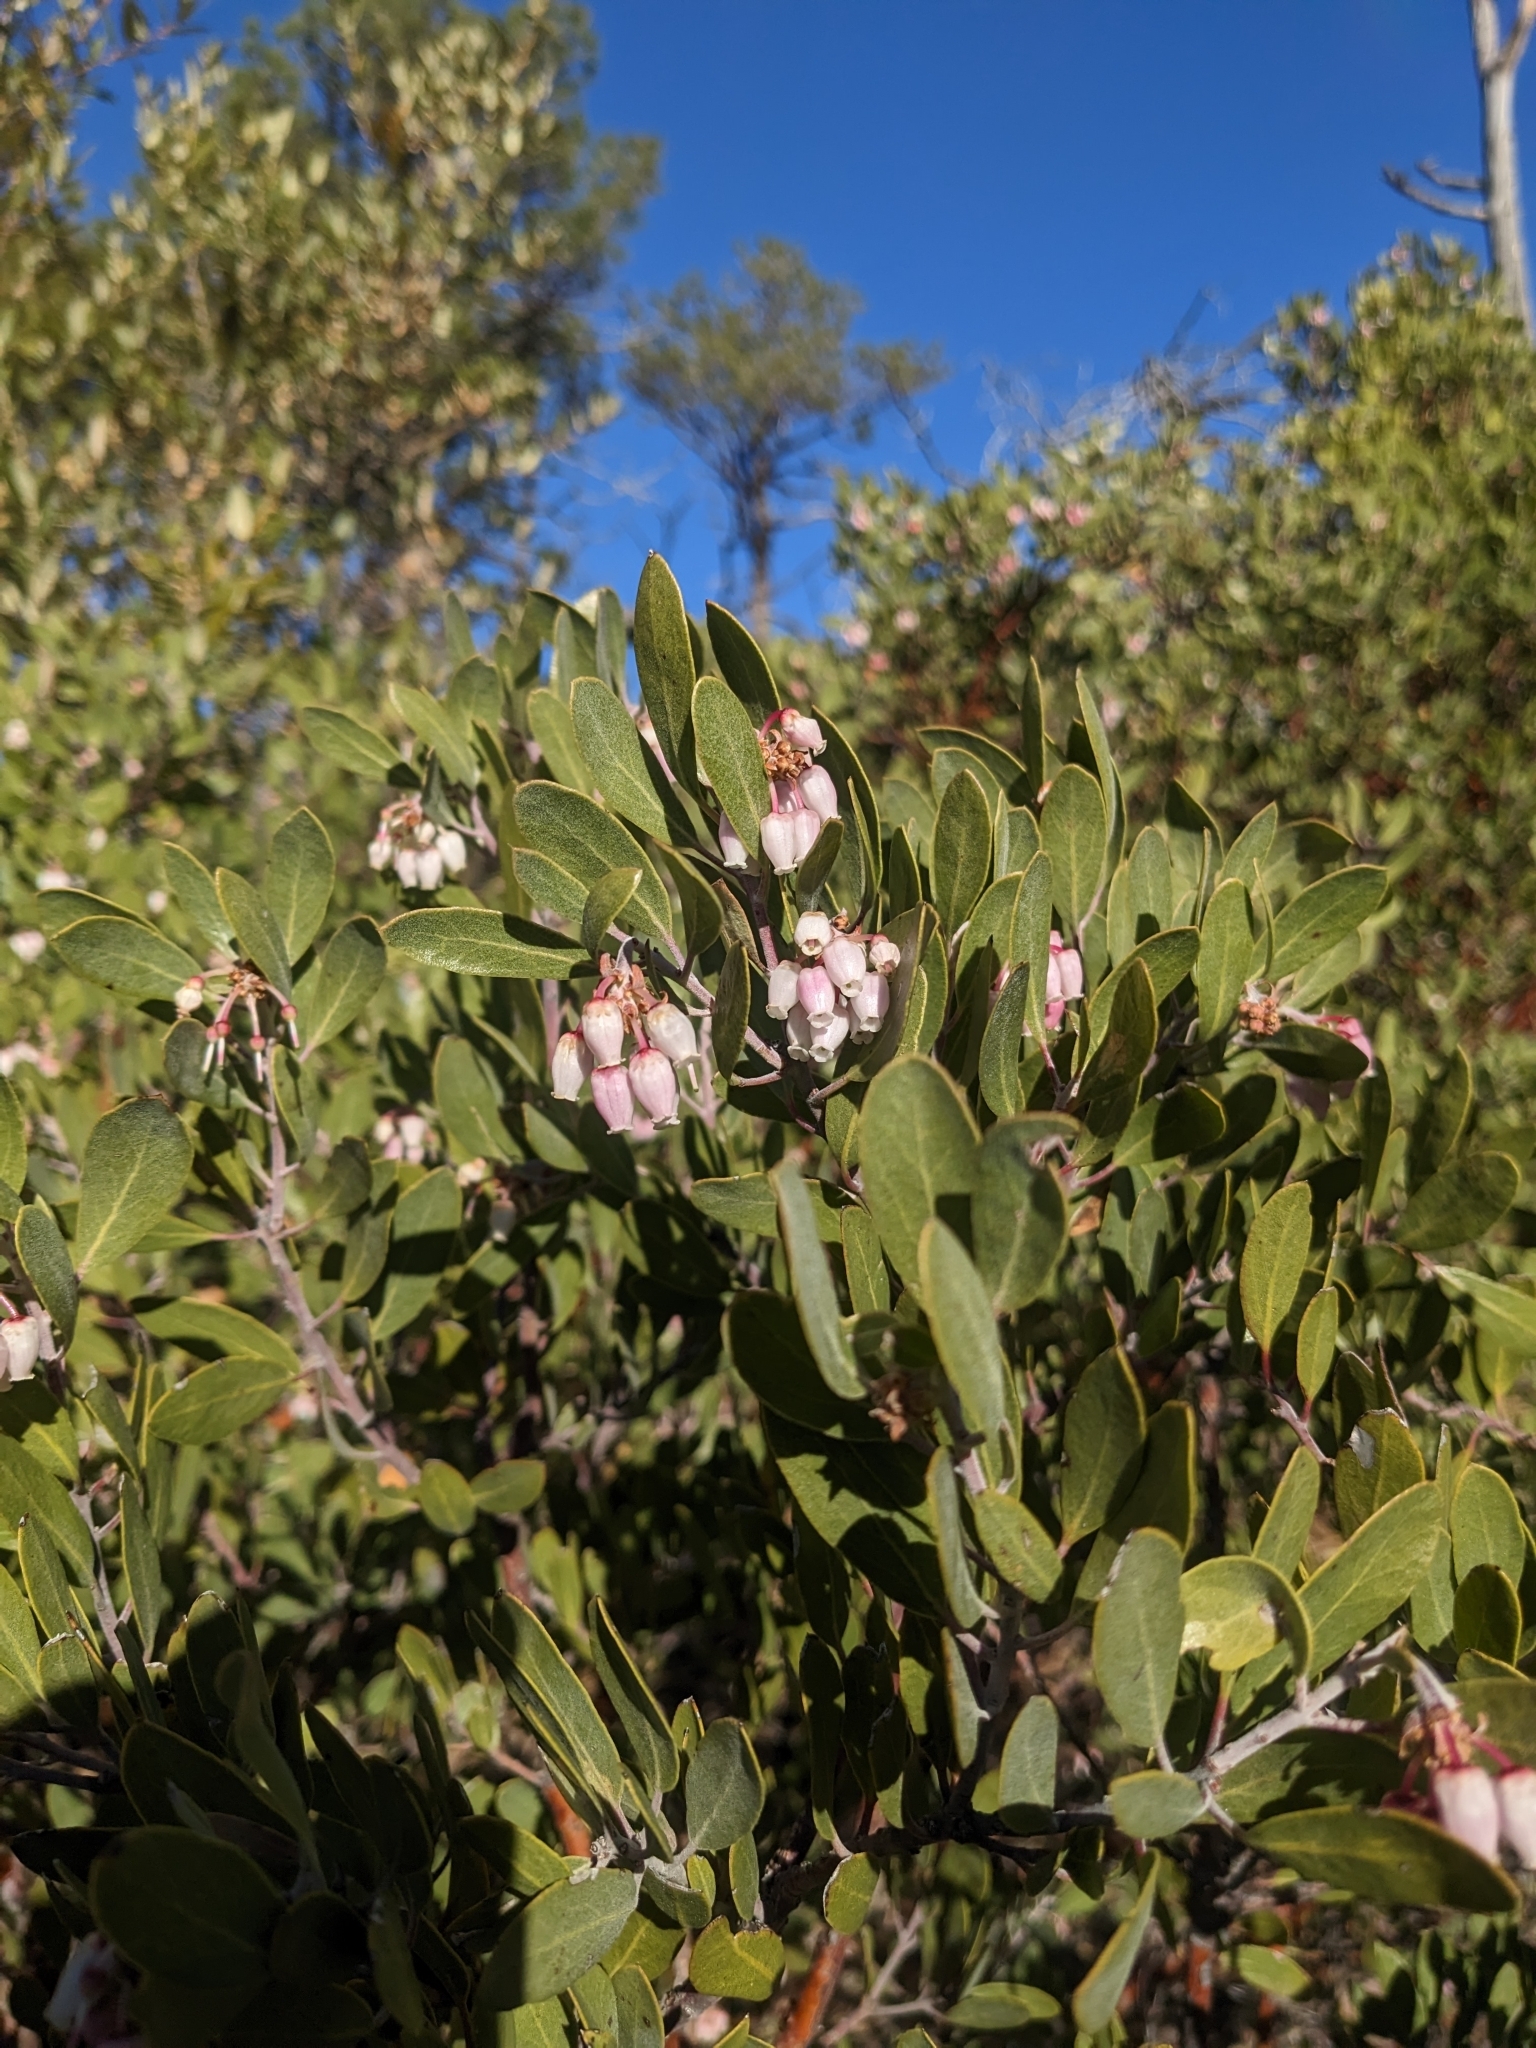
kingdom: Plantae
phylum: Tracheophyta
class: Magnoliopsida
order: Ericales
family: Ericaceae
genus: Arctostaphylos
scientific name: Arctostaphylos pungens
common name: Mexican manzanita
